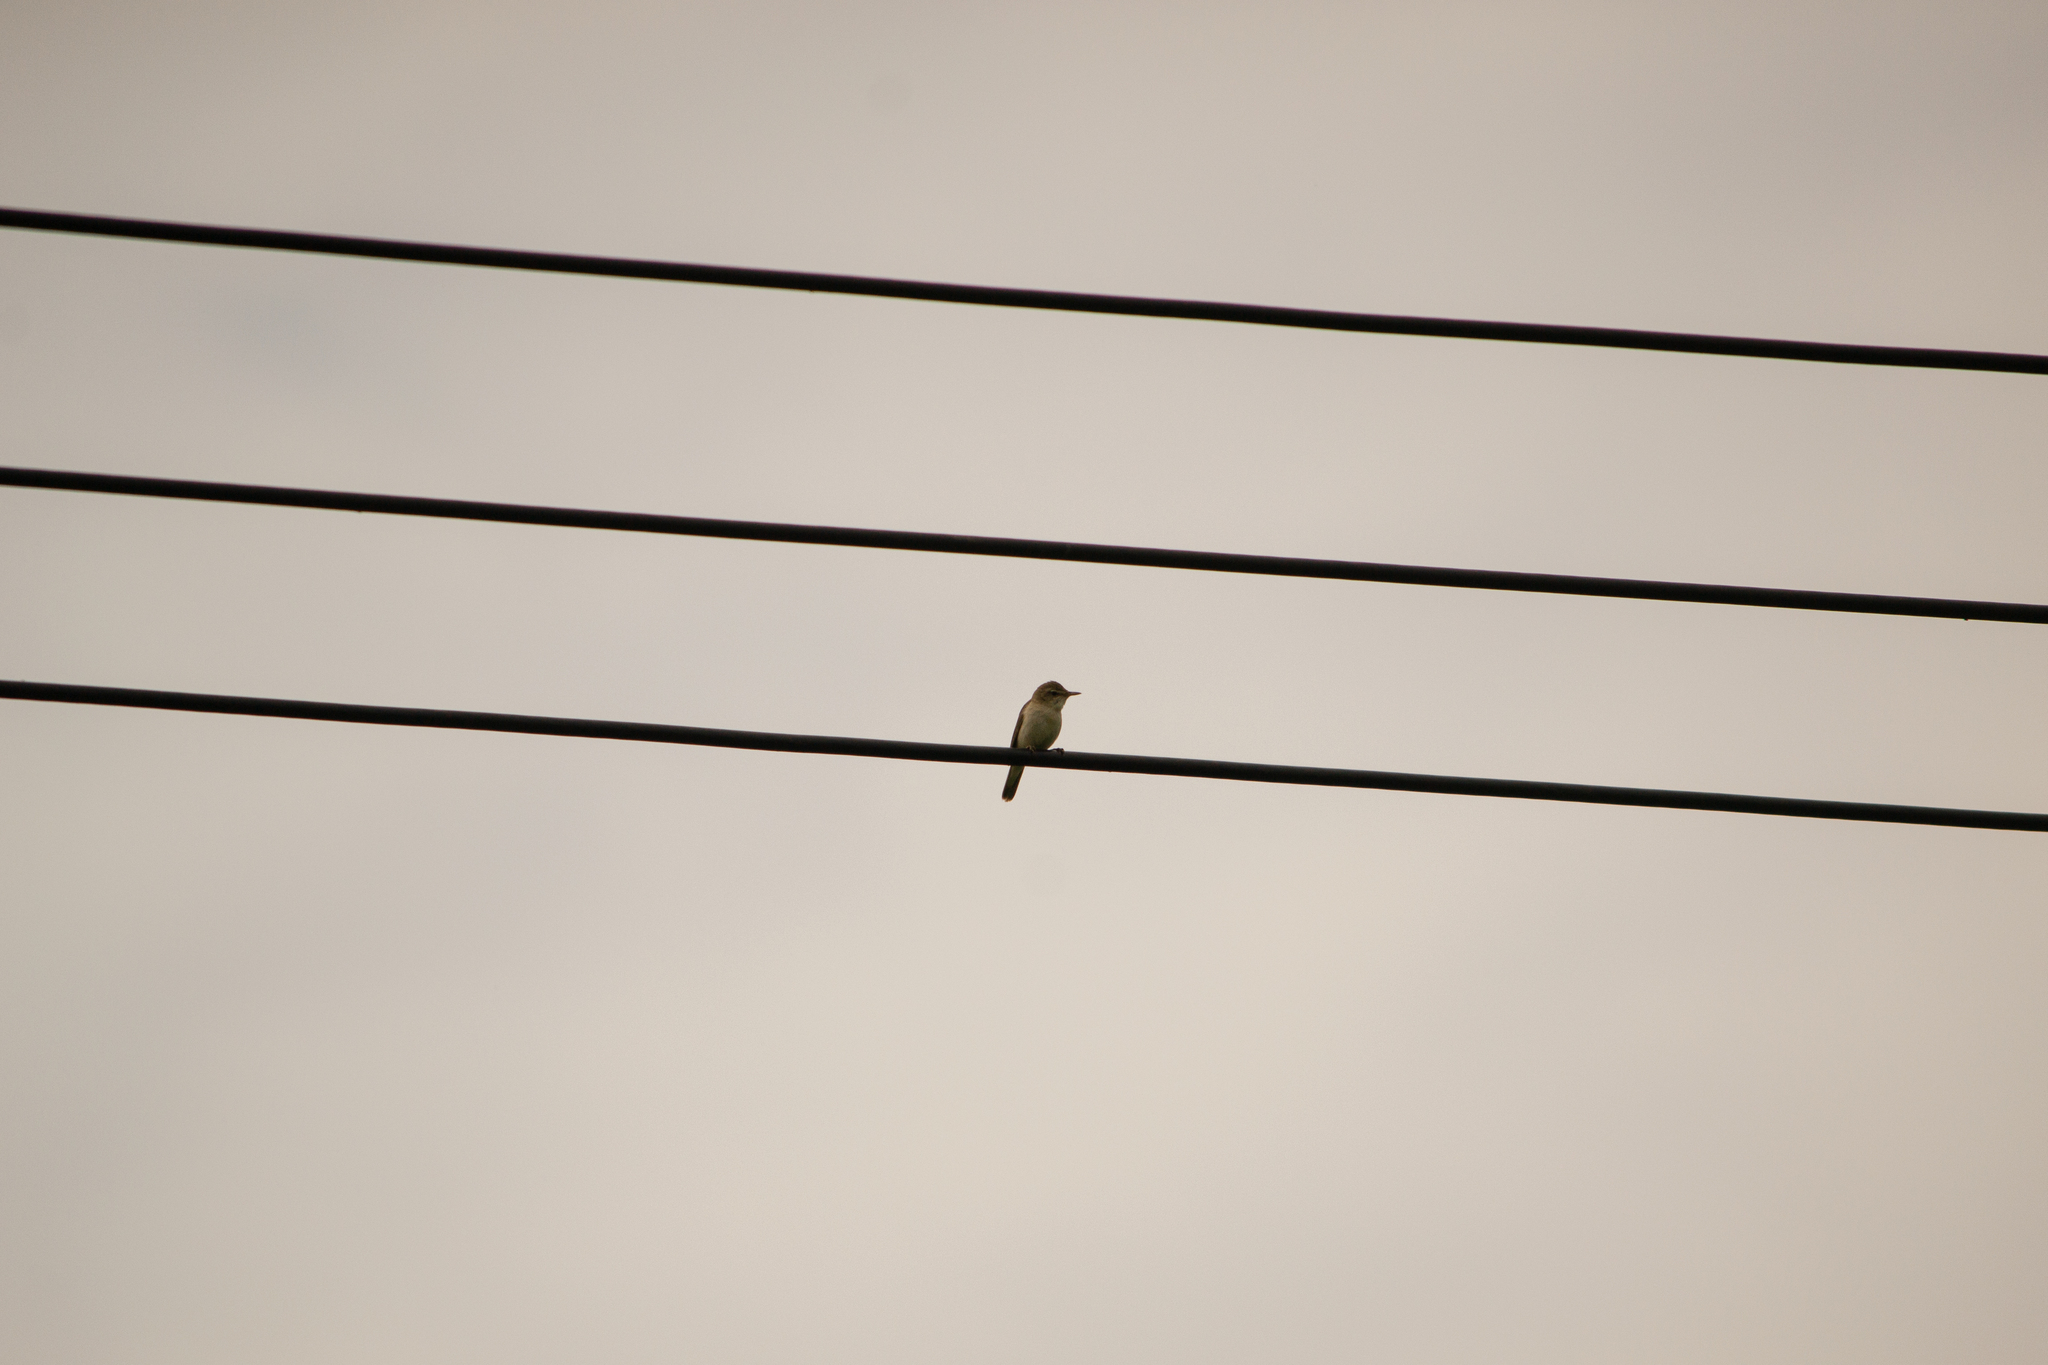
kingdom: Animalia
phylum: Chordata
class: Aves
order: Passeriformes
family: Acrocephalidae
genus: Acrocephalus
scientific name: Acrocephalus dumetorum
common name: Blyth's reed warbler
